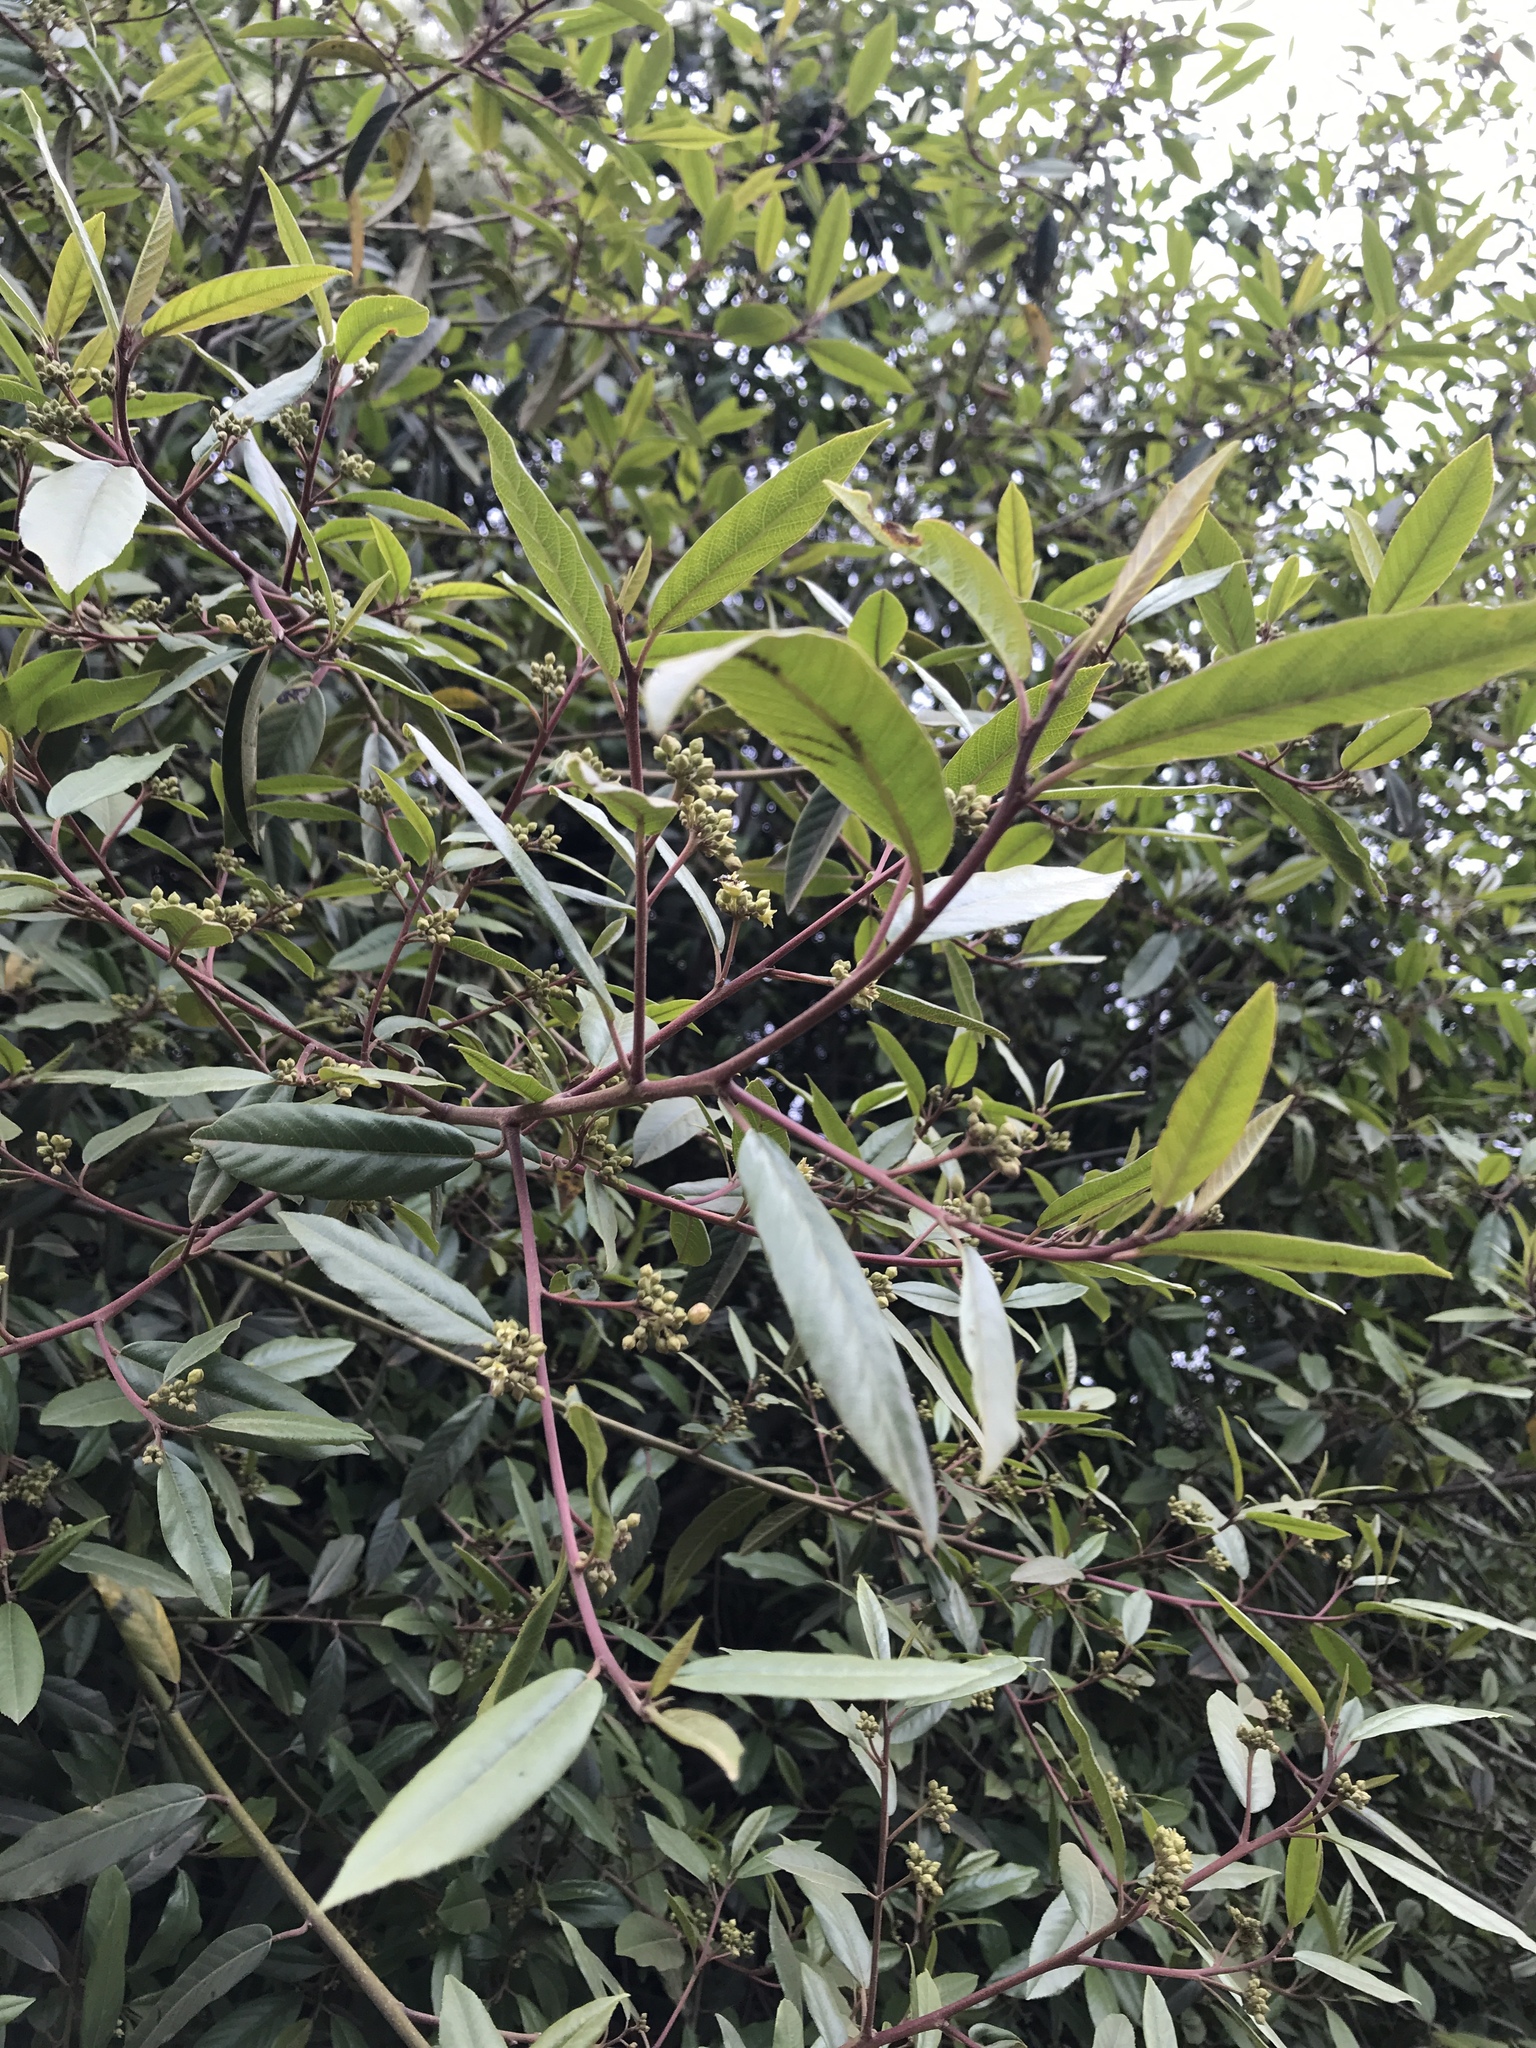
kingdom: Plantae
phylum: Tracheophyta
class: Magnoliopsida
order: Rosales
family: Rhamnaceae
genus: Frangula
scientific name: Frangula californica
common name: California buckthorn
